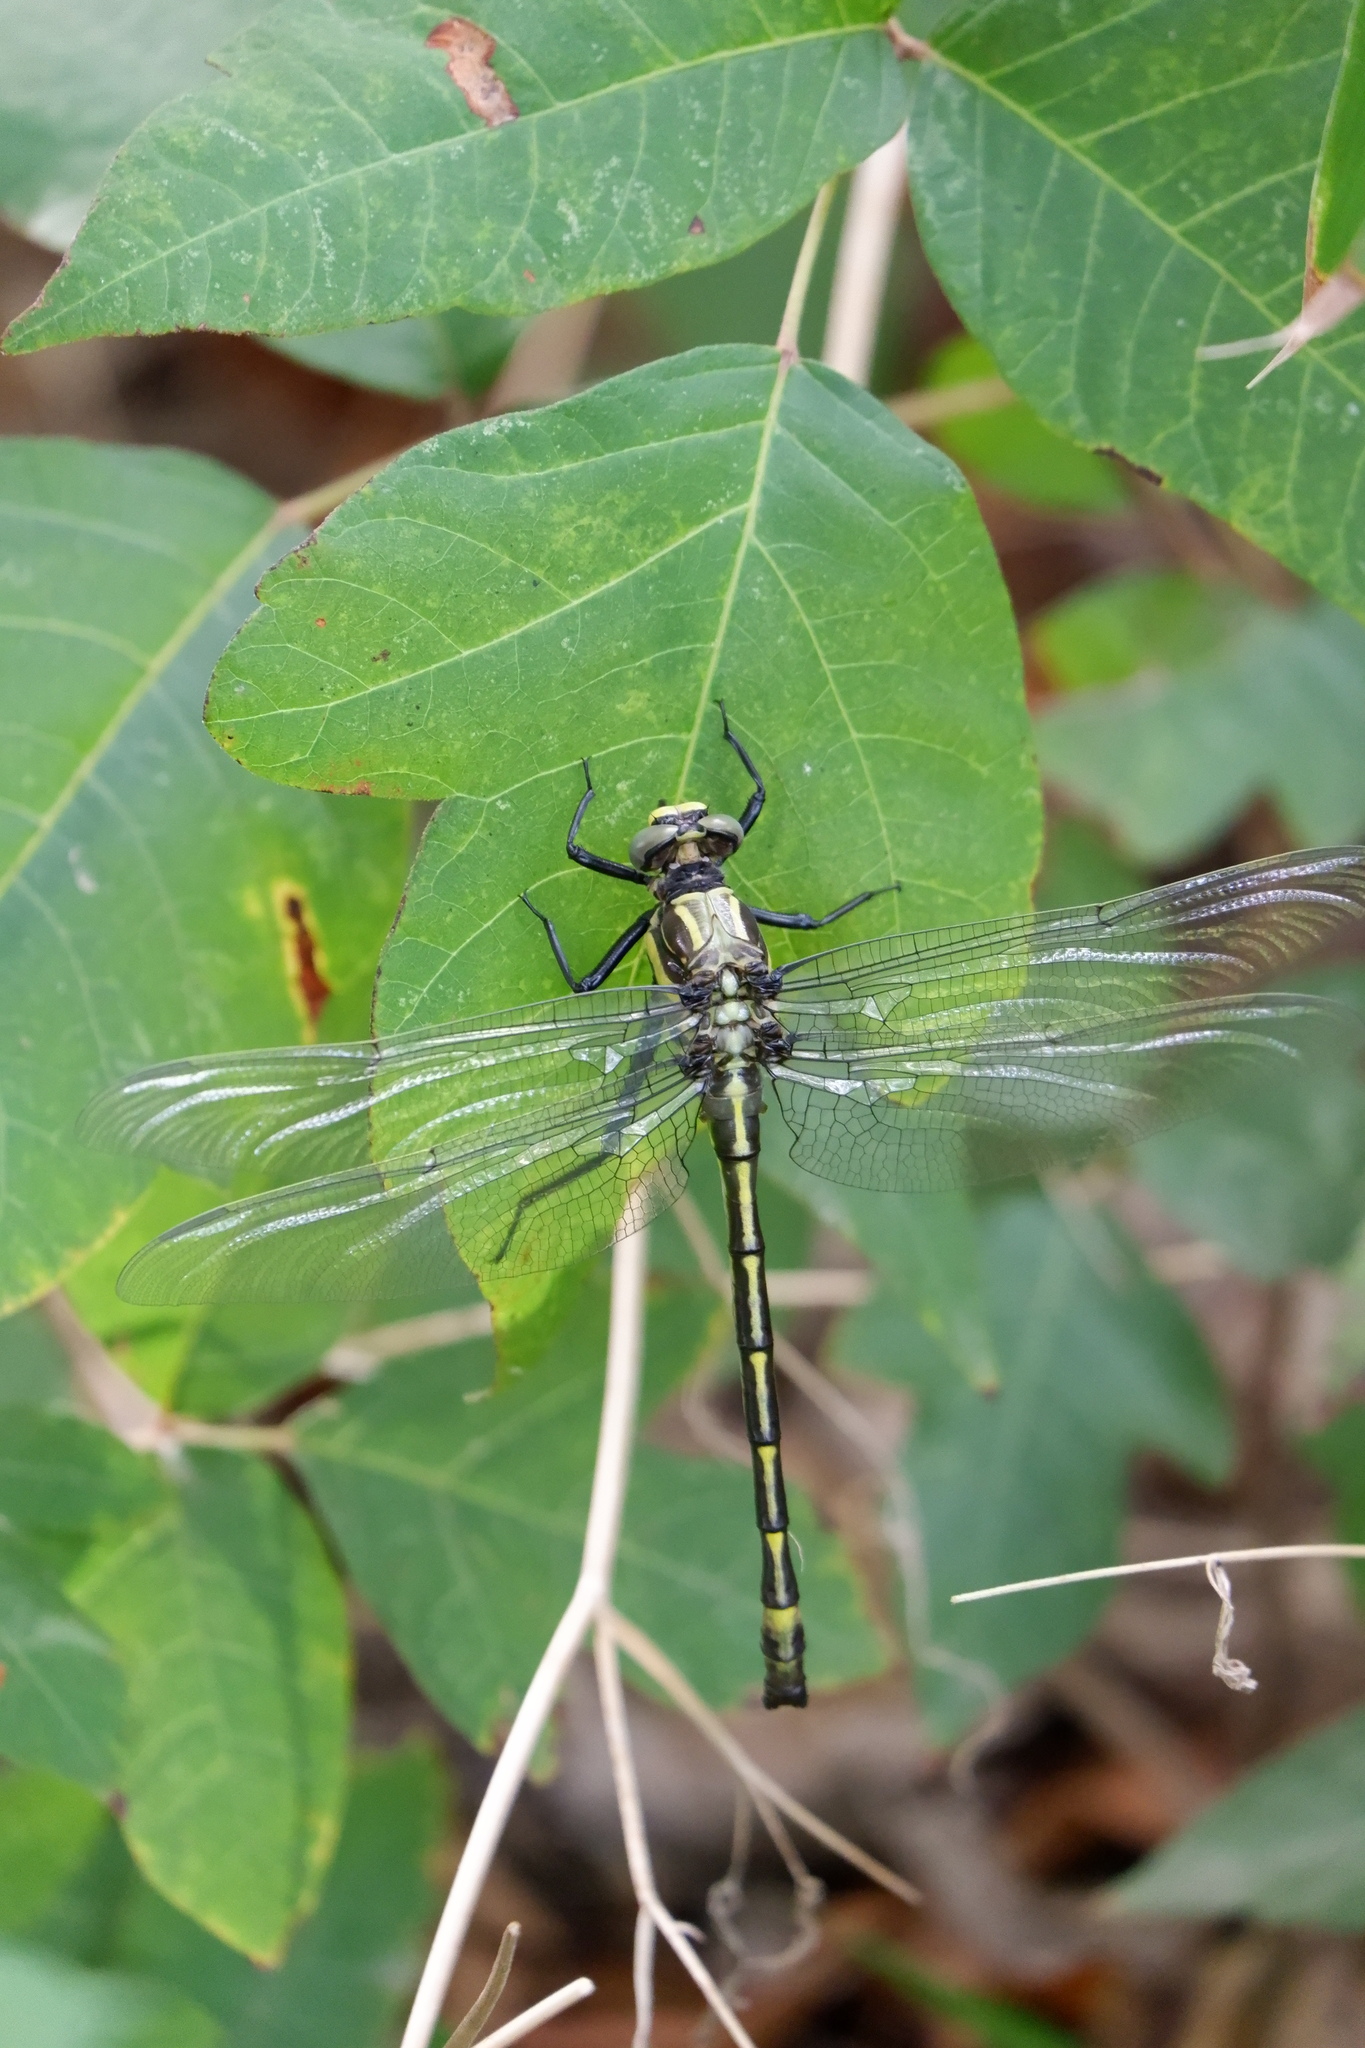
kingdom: Animalia
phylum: Arthropoda
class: Insecta
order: Odonata
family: Gomphidae
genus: Hagenius
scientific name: Hagenius brevistylus
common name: Dragonhunter
